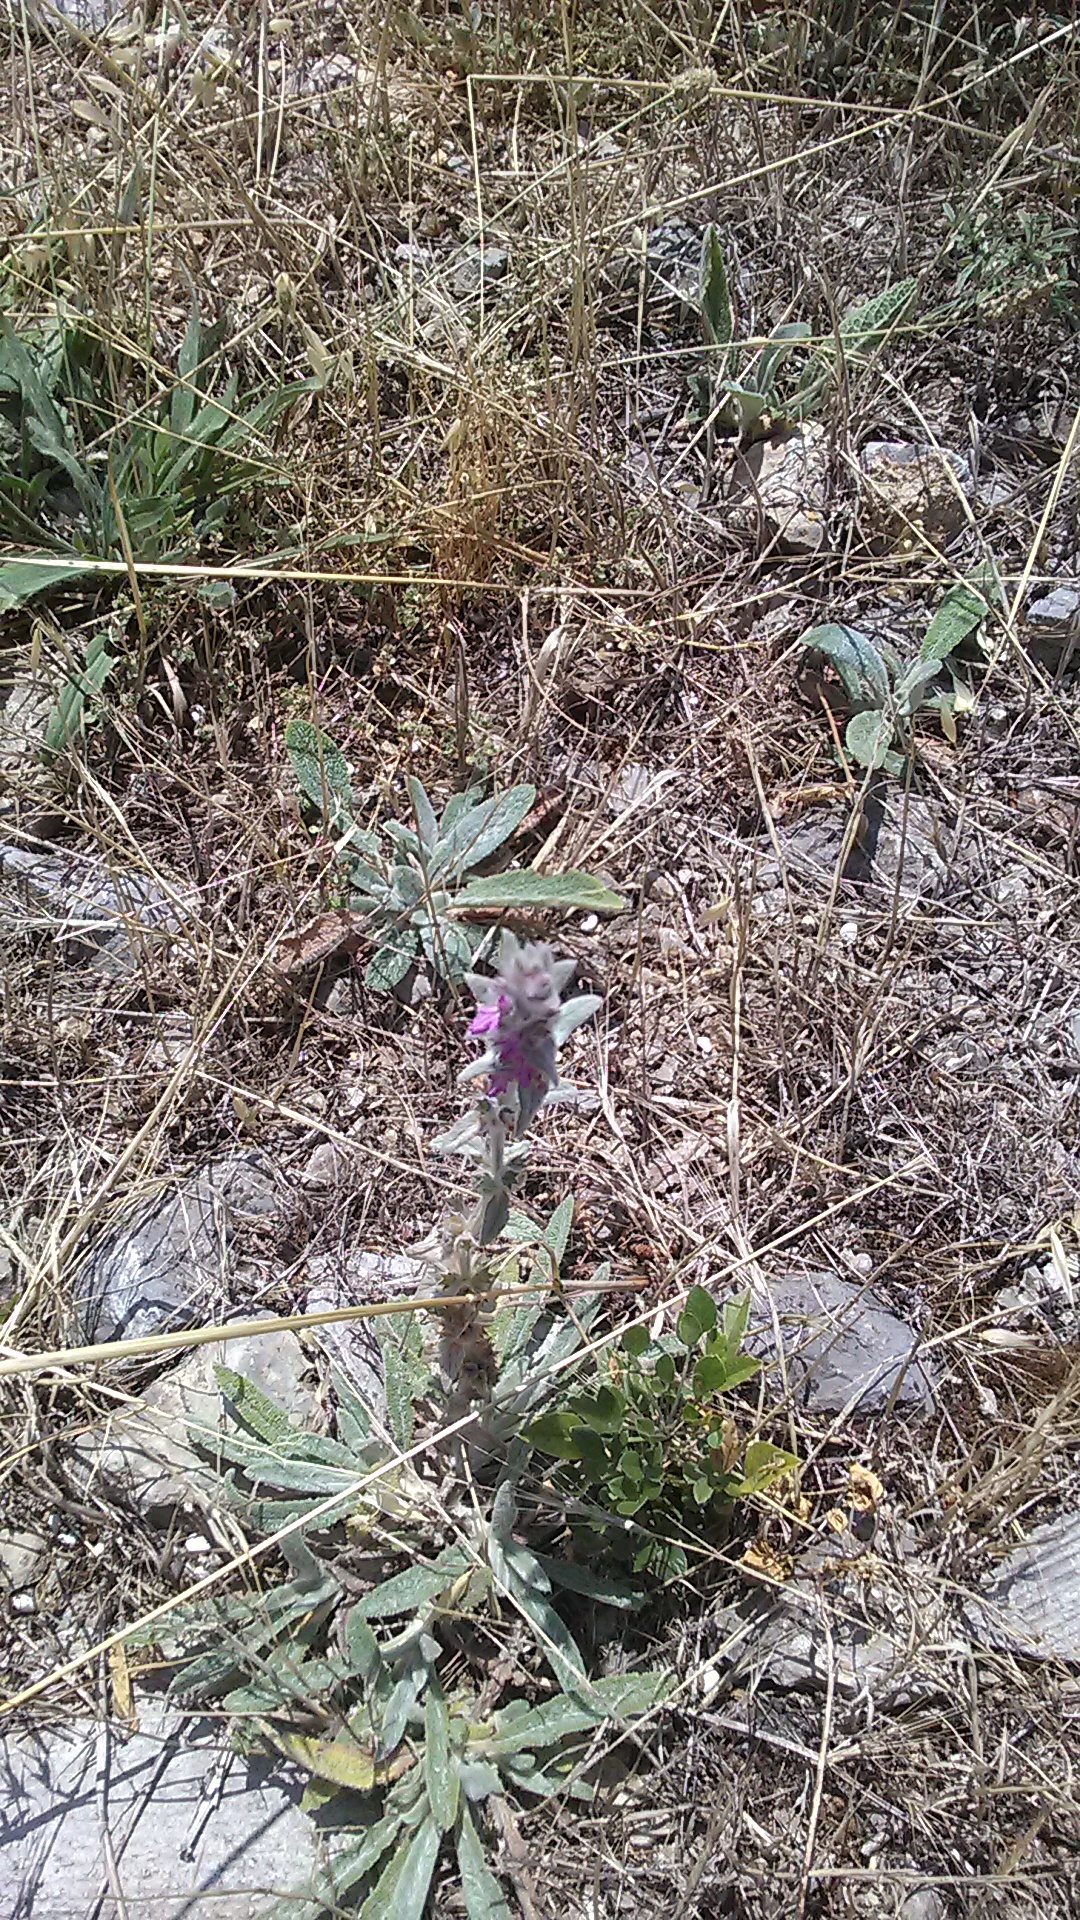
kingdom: Plantae
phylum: Tracheophyta
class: Magnoliopsida
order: Lamiales
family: Lamiaceae
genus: Stachys
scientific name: Stachys byzantina
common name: Lamb's-ear
